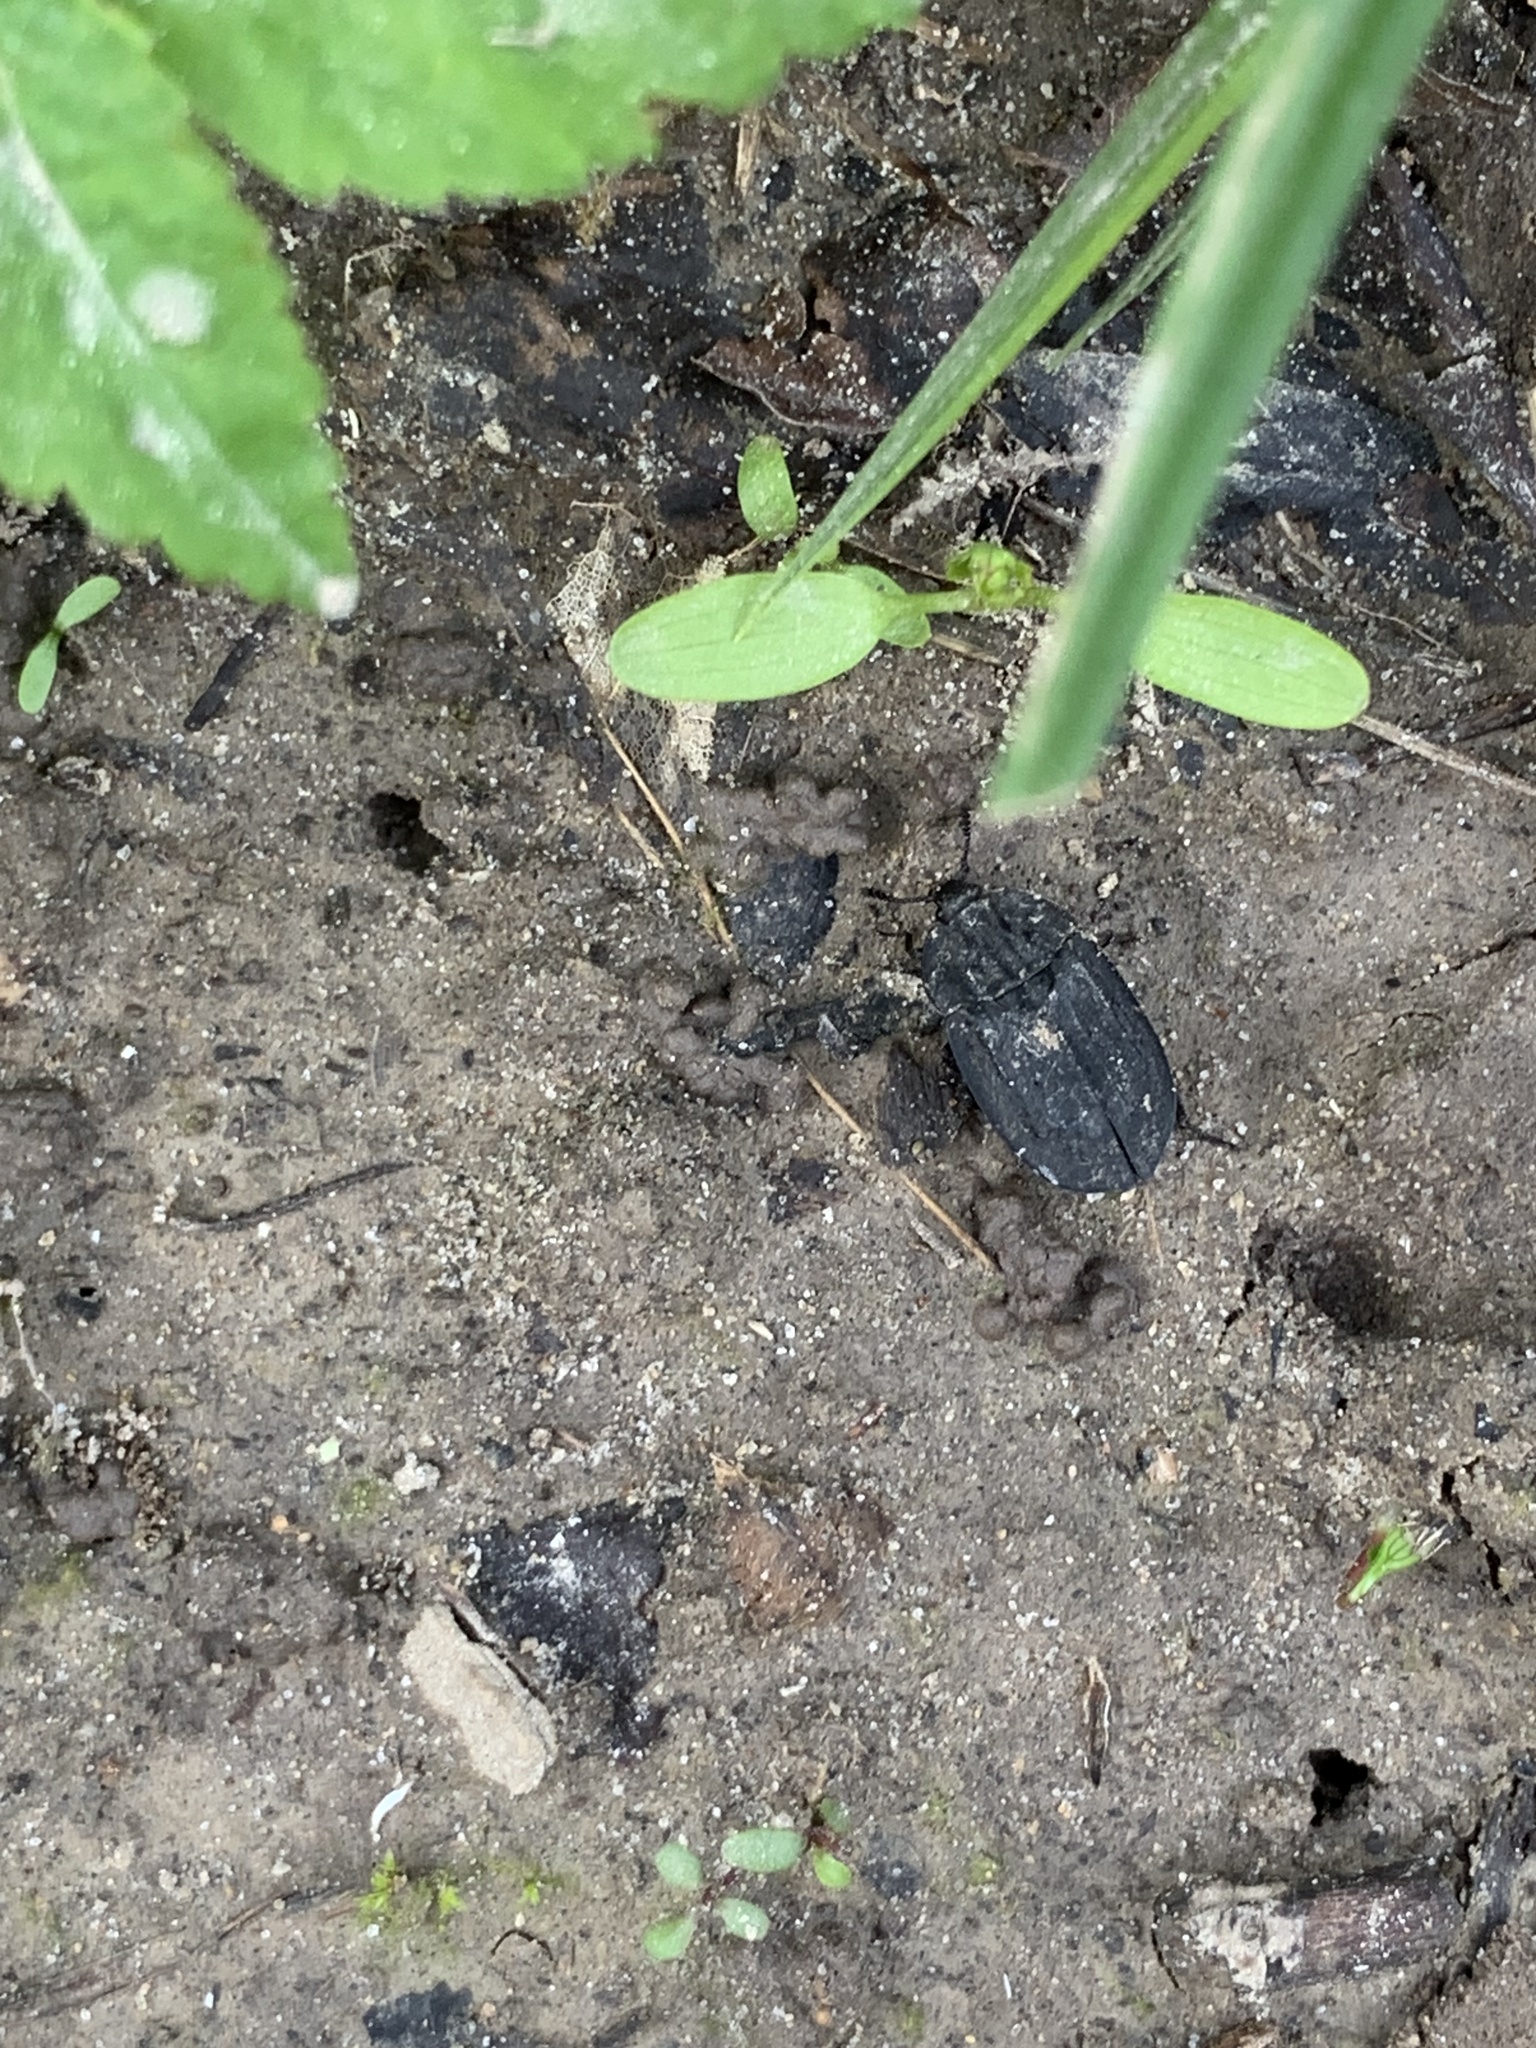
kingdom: Animalia
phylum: Arthropoda
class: Insecta
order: Coleoptera
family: Staphylinidae
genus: Oiceoptoma
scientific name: Oiceoptoma inaequale
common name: Ridged carrion beetle
